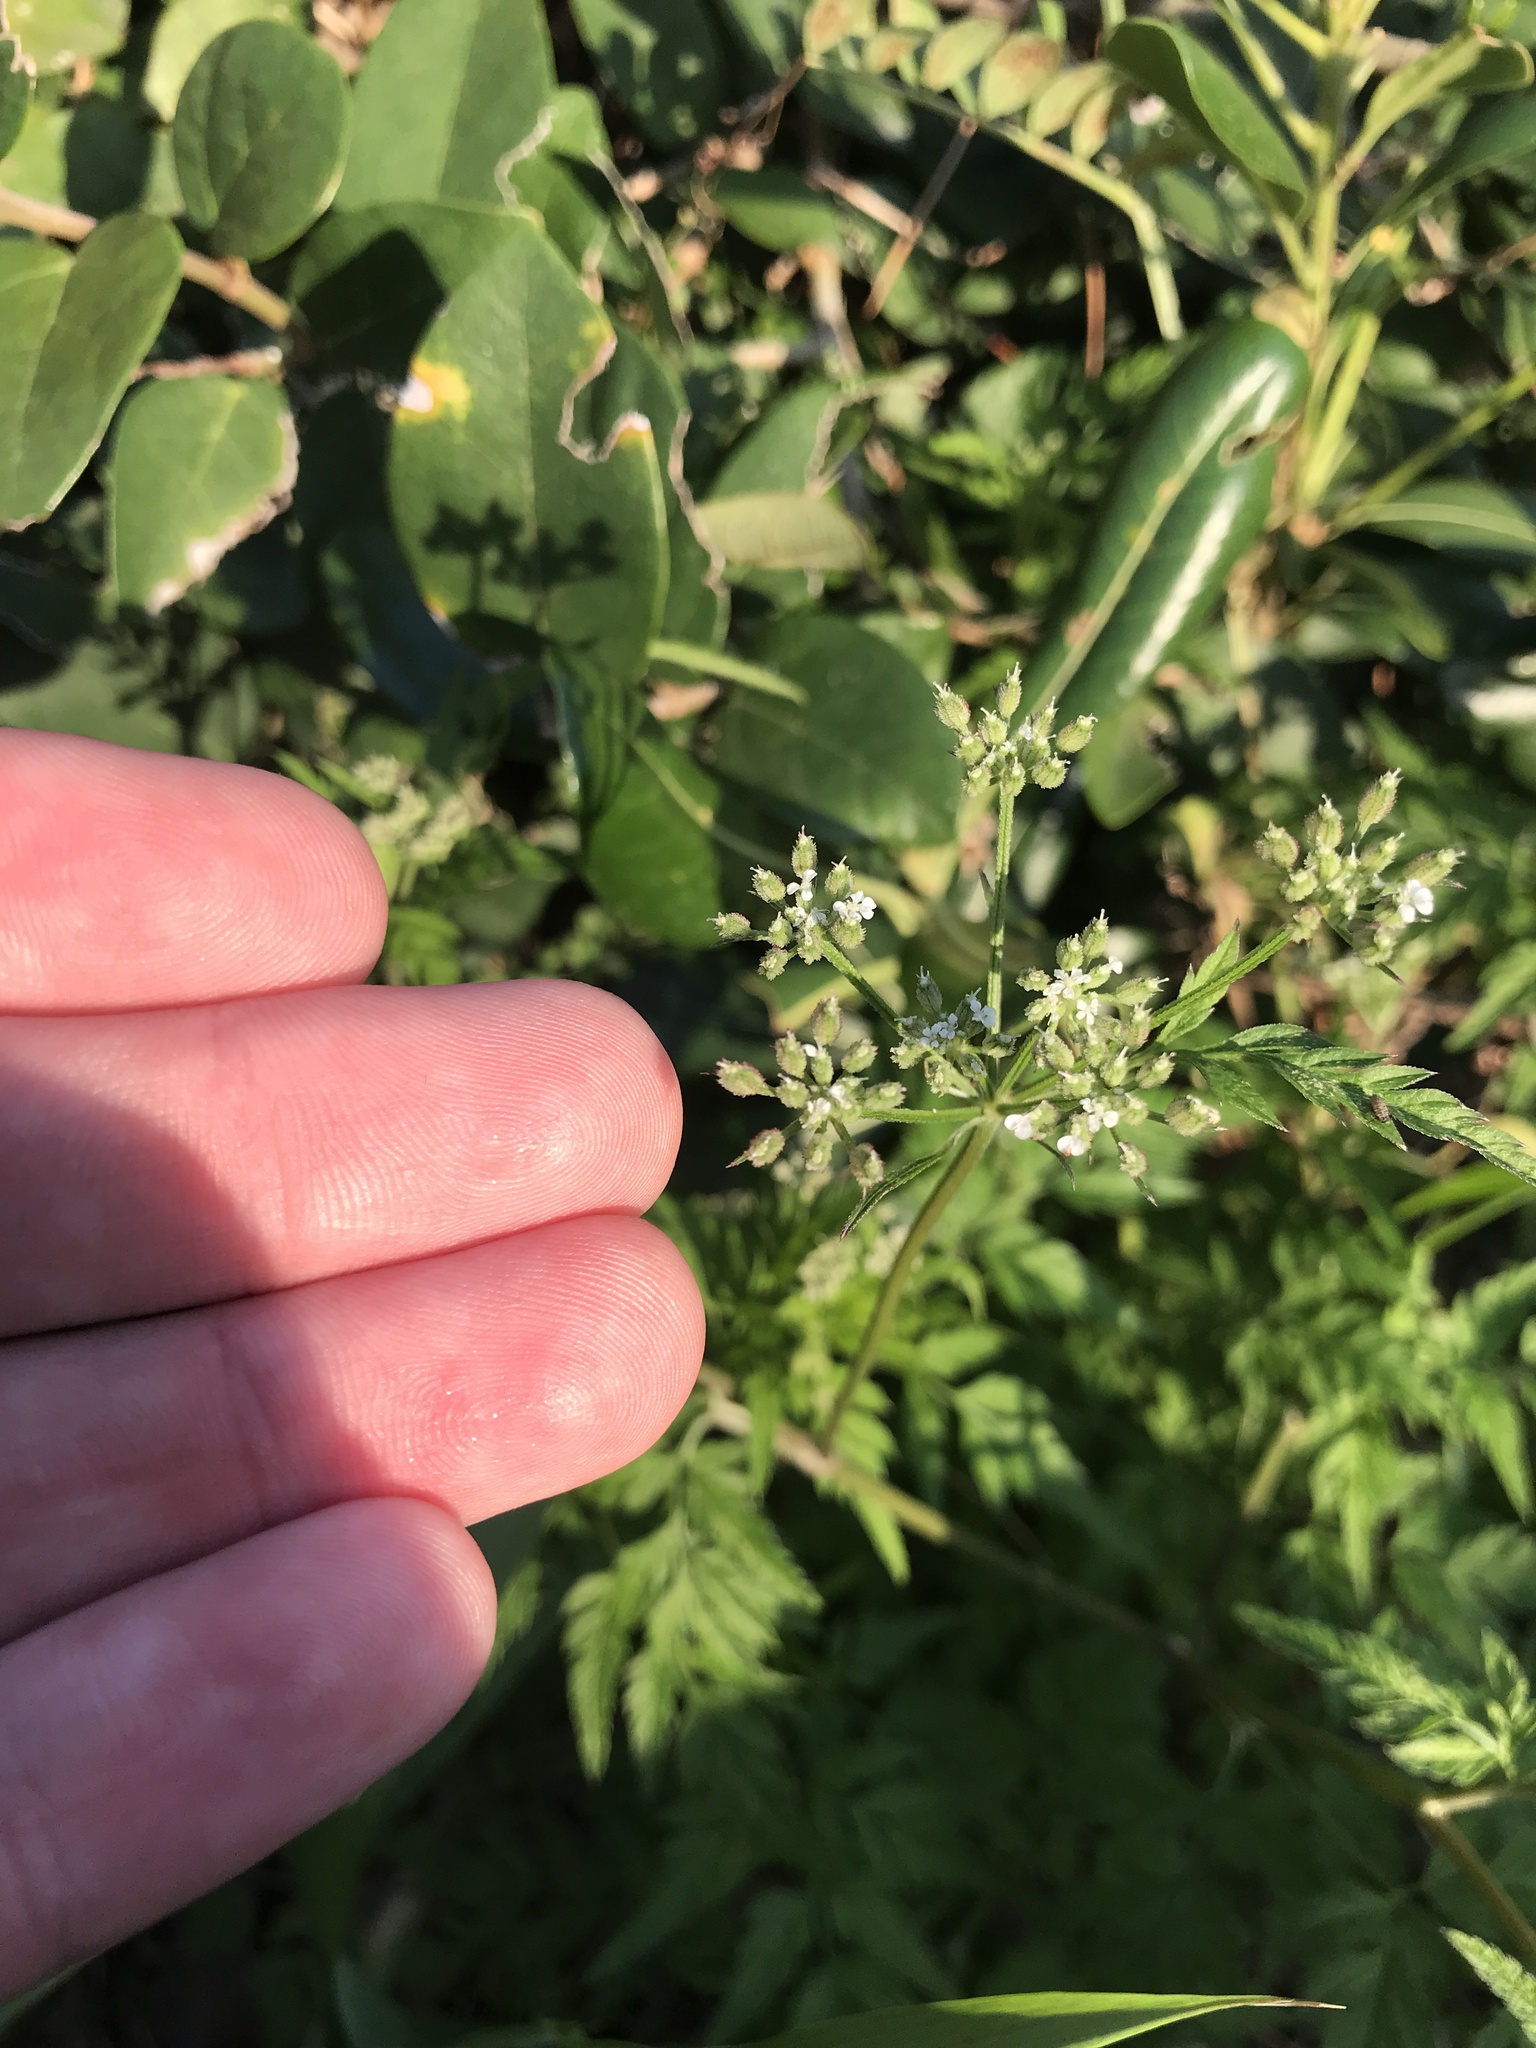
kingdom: Plantae
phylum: Tracheophyta
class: Magnoliopsida
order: Apiales
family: Apiaceae
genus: Torilis
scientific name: Torilis japonica
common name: Upright hedge-parsley
